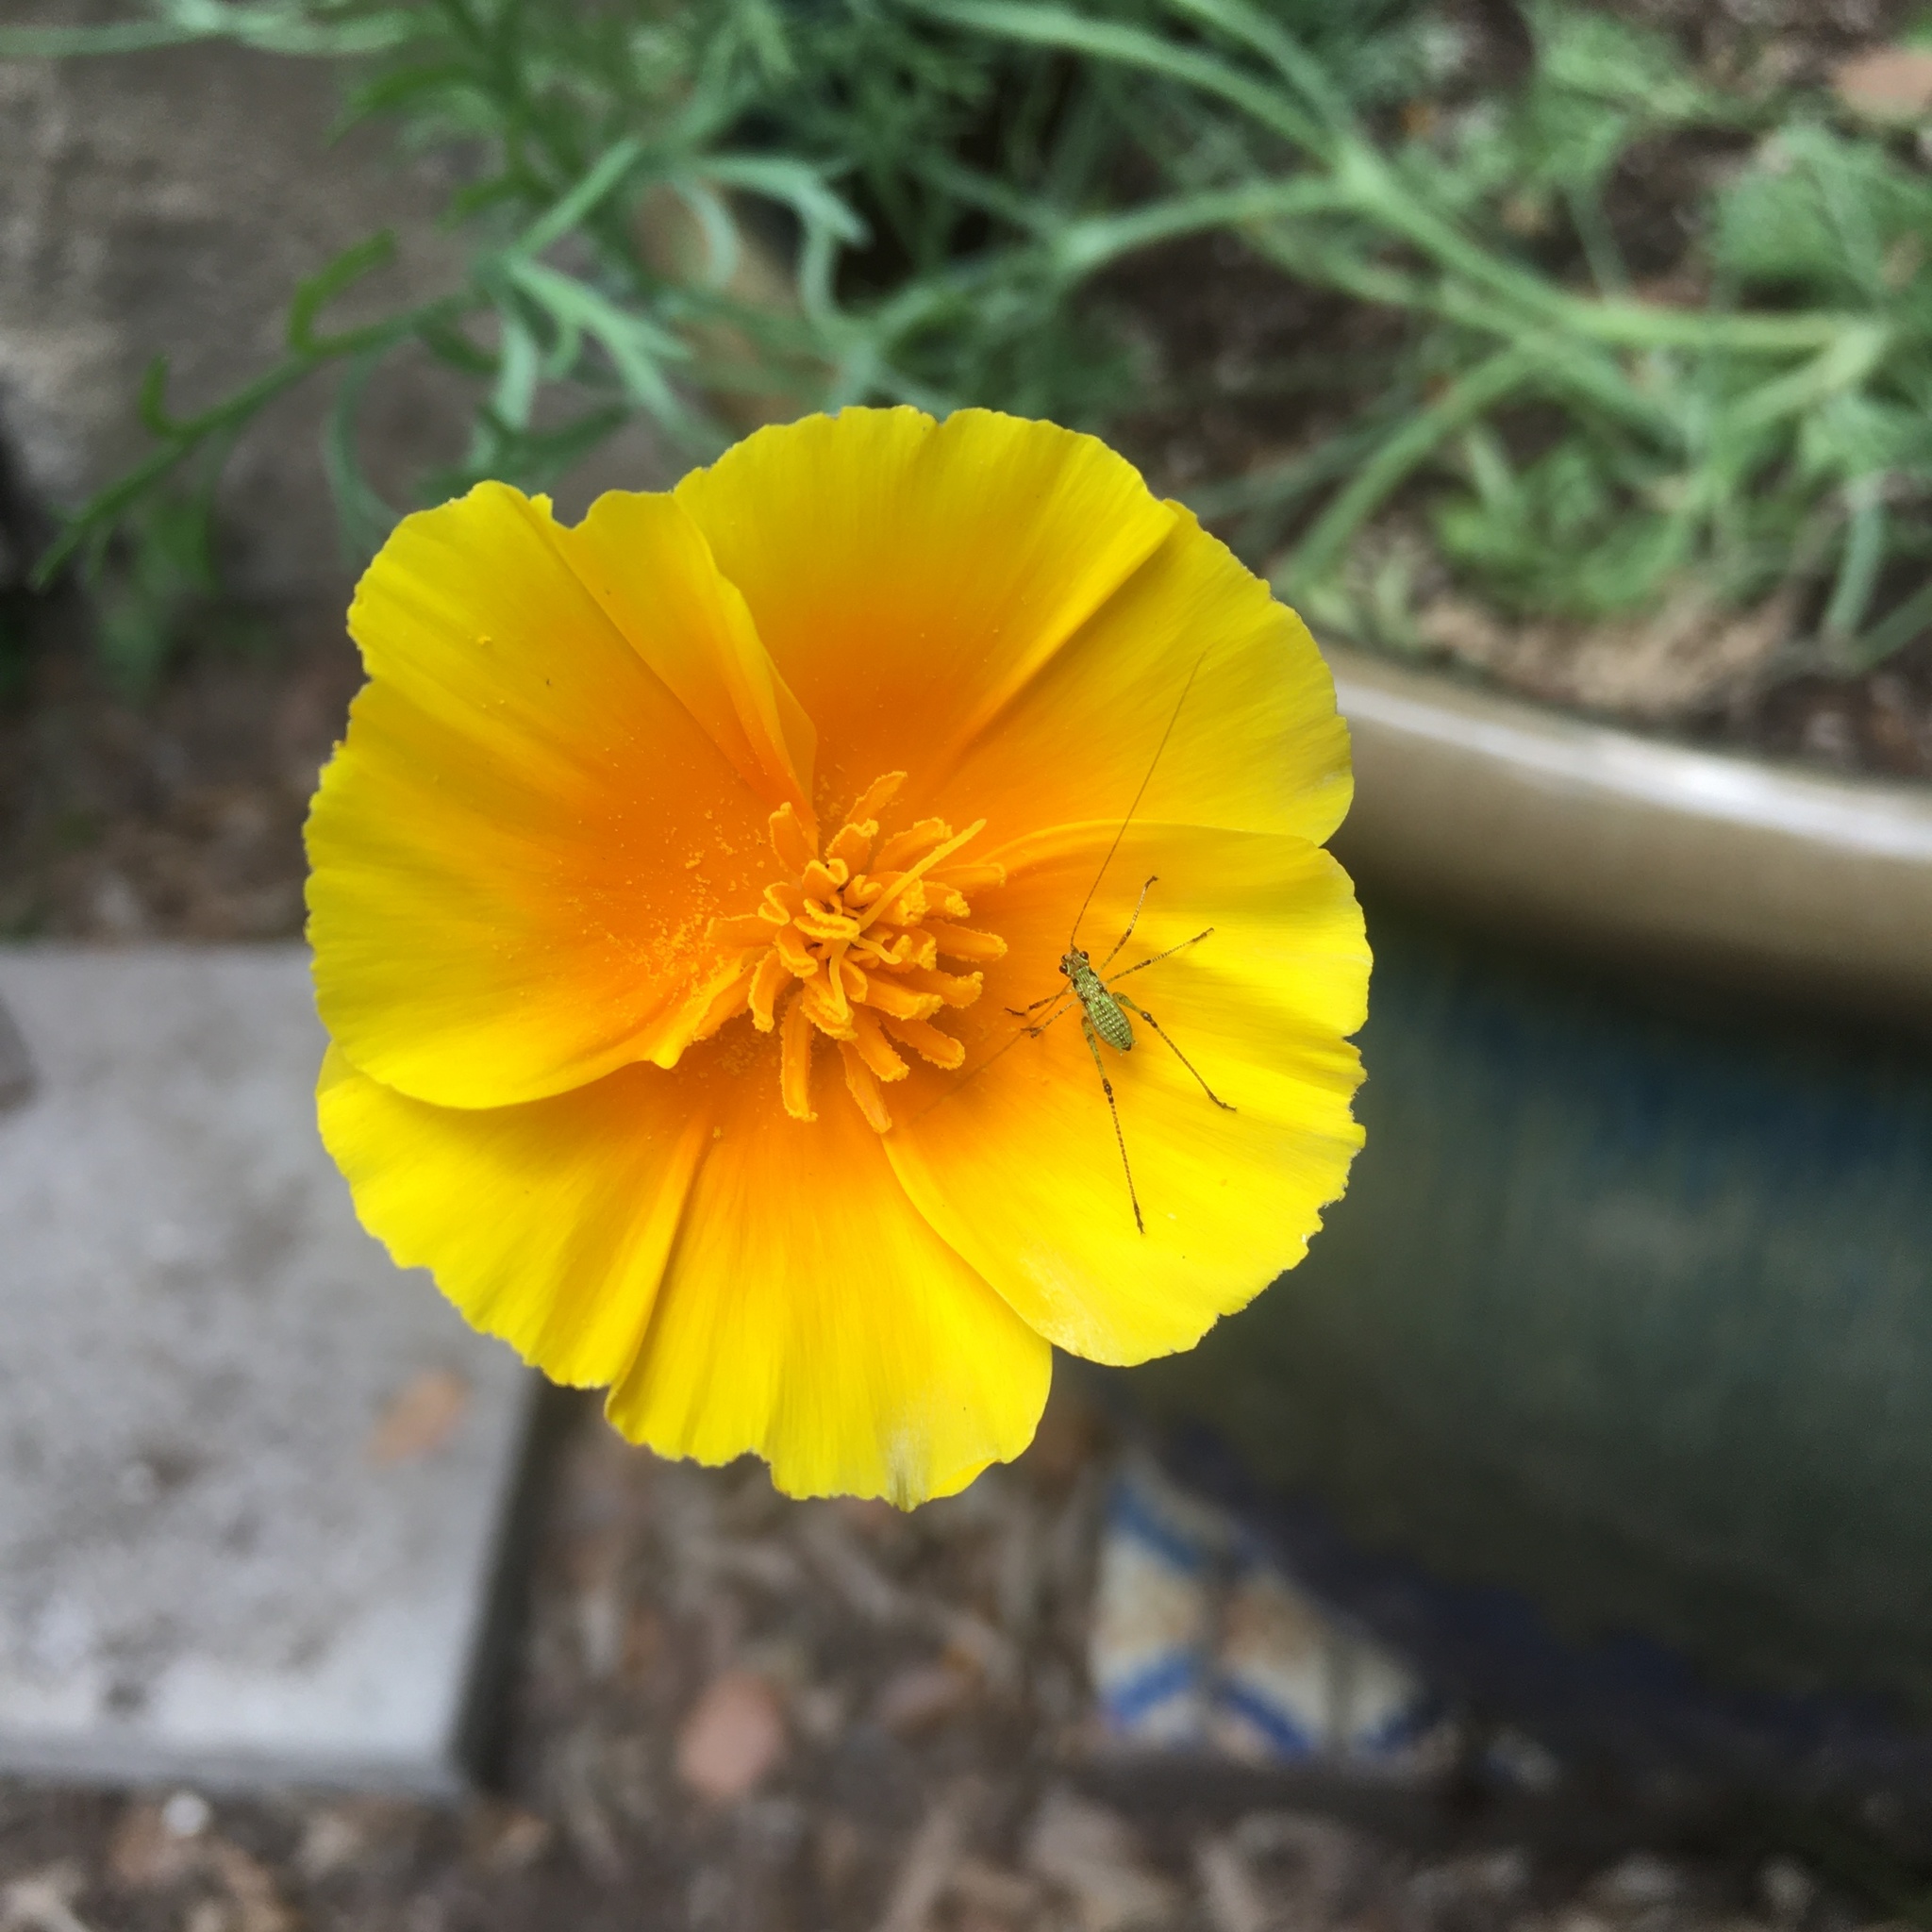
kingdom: Animalia
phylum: Arthropoda
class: Insecta
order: Orthoptera
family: Tettigoniidae
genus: Phaneroptera
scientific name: Phaneroptera nana
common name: Southern sickle bush-cricket
